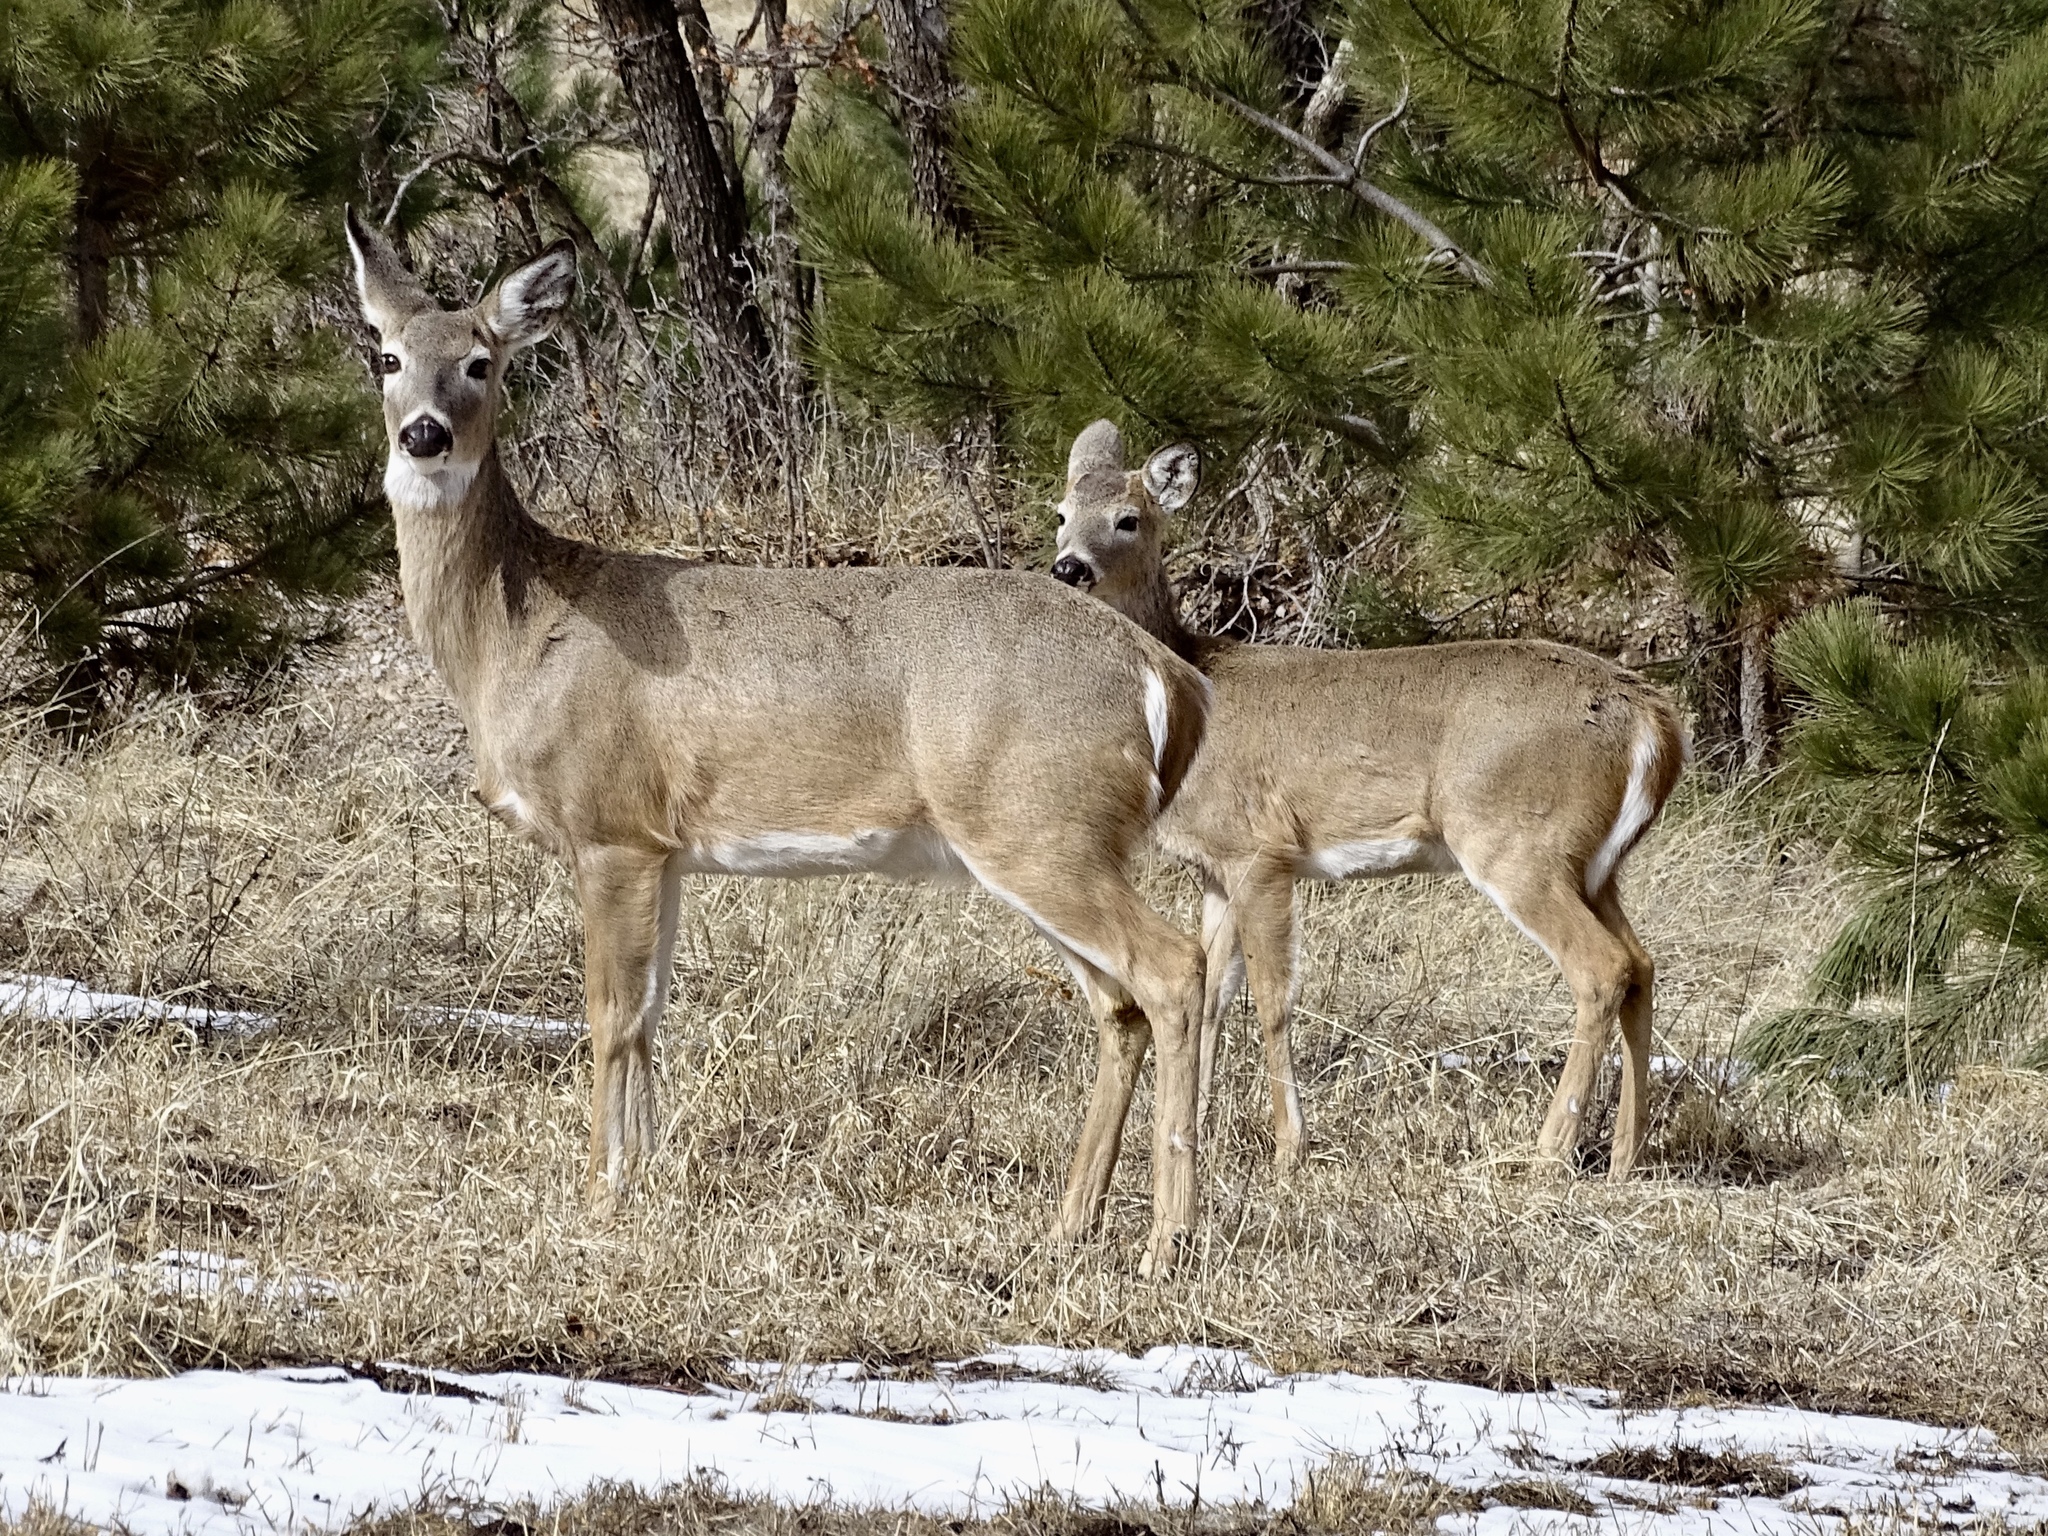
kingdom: Animalia
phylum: Chordata
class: Mammalia
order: Artiodactyla
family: Cervidae
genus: Odocoileus
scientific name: Odocoileus virginianus
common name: White-tailed deer
